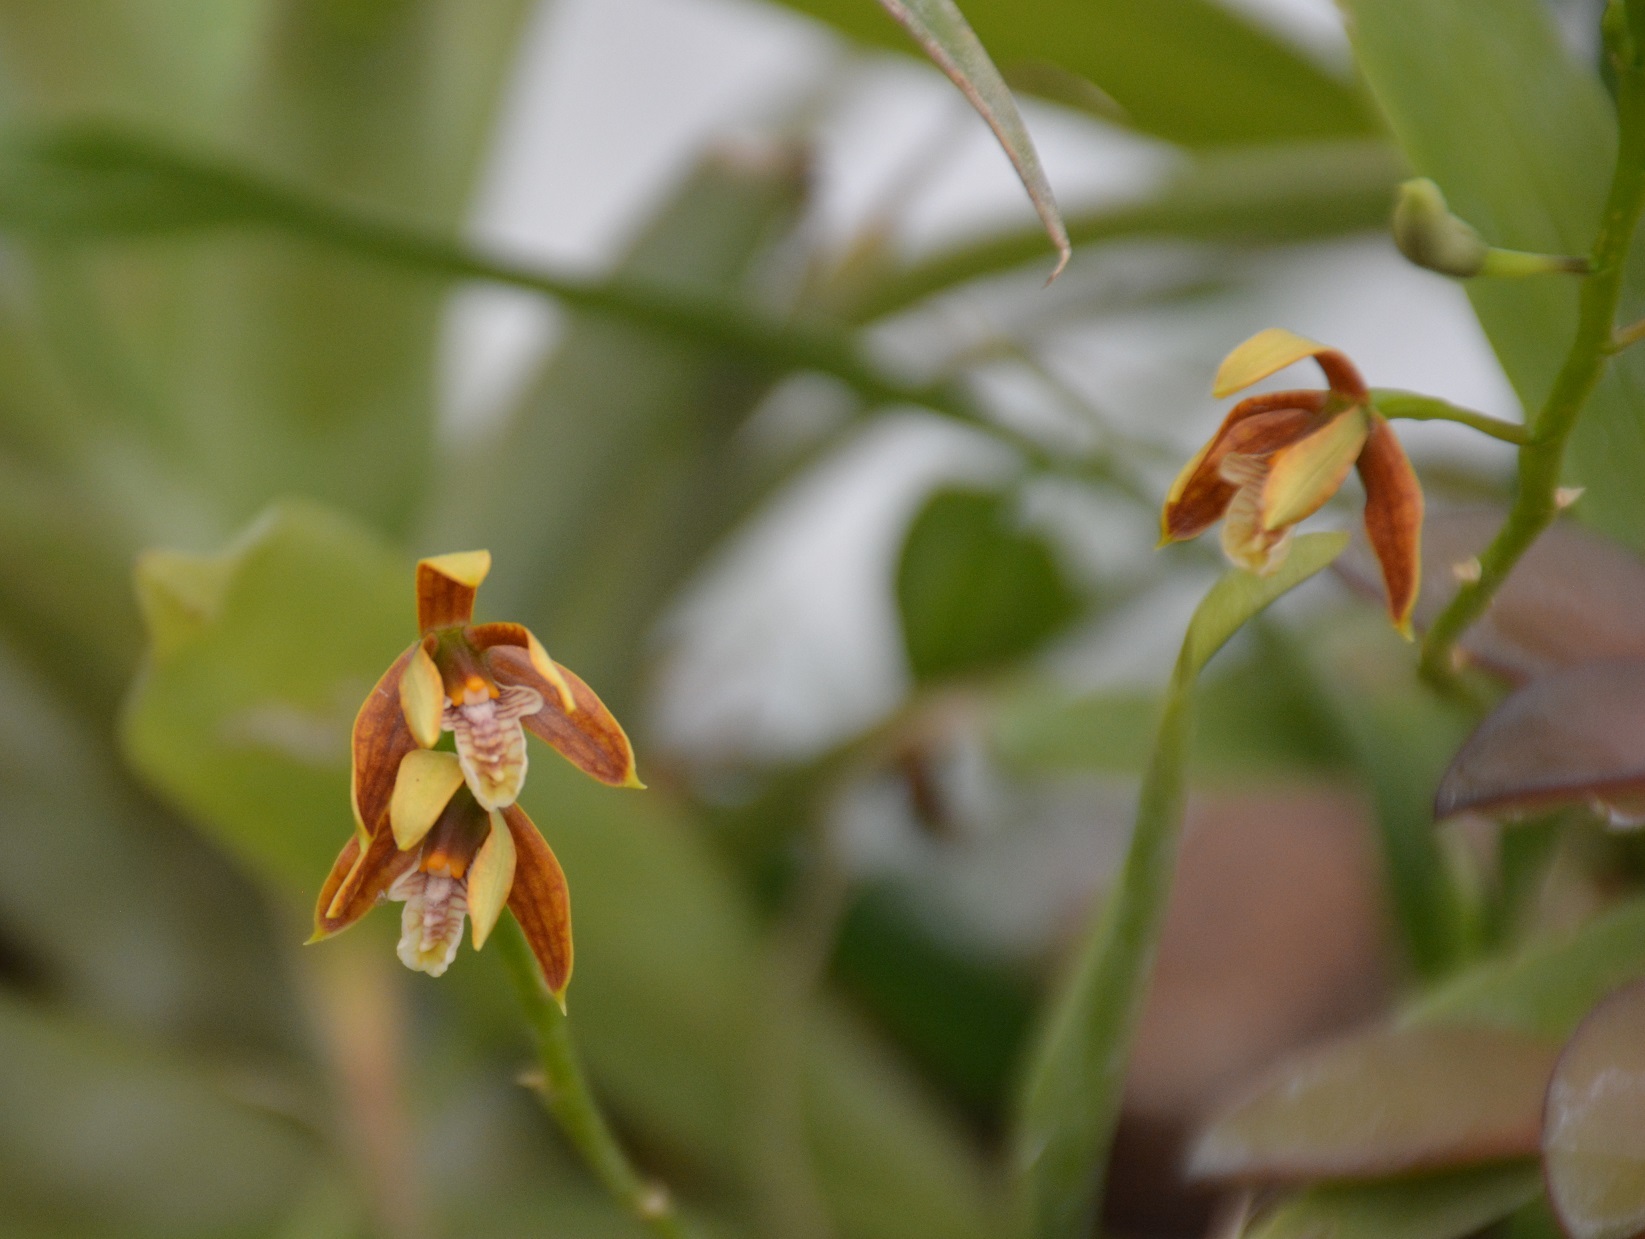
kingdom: Plantae
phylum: Tracheophyta
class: Liliopsida
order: Asparagales
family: Orchidaceae
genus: Prosthechea
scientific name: Prosthechea livida
